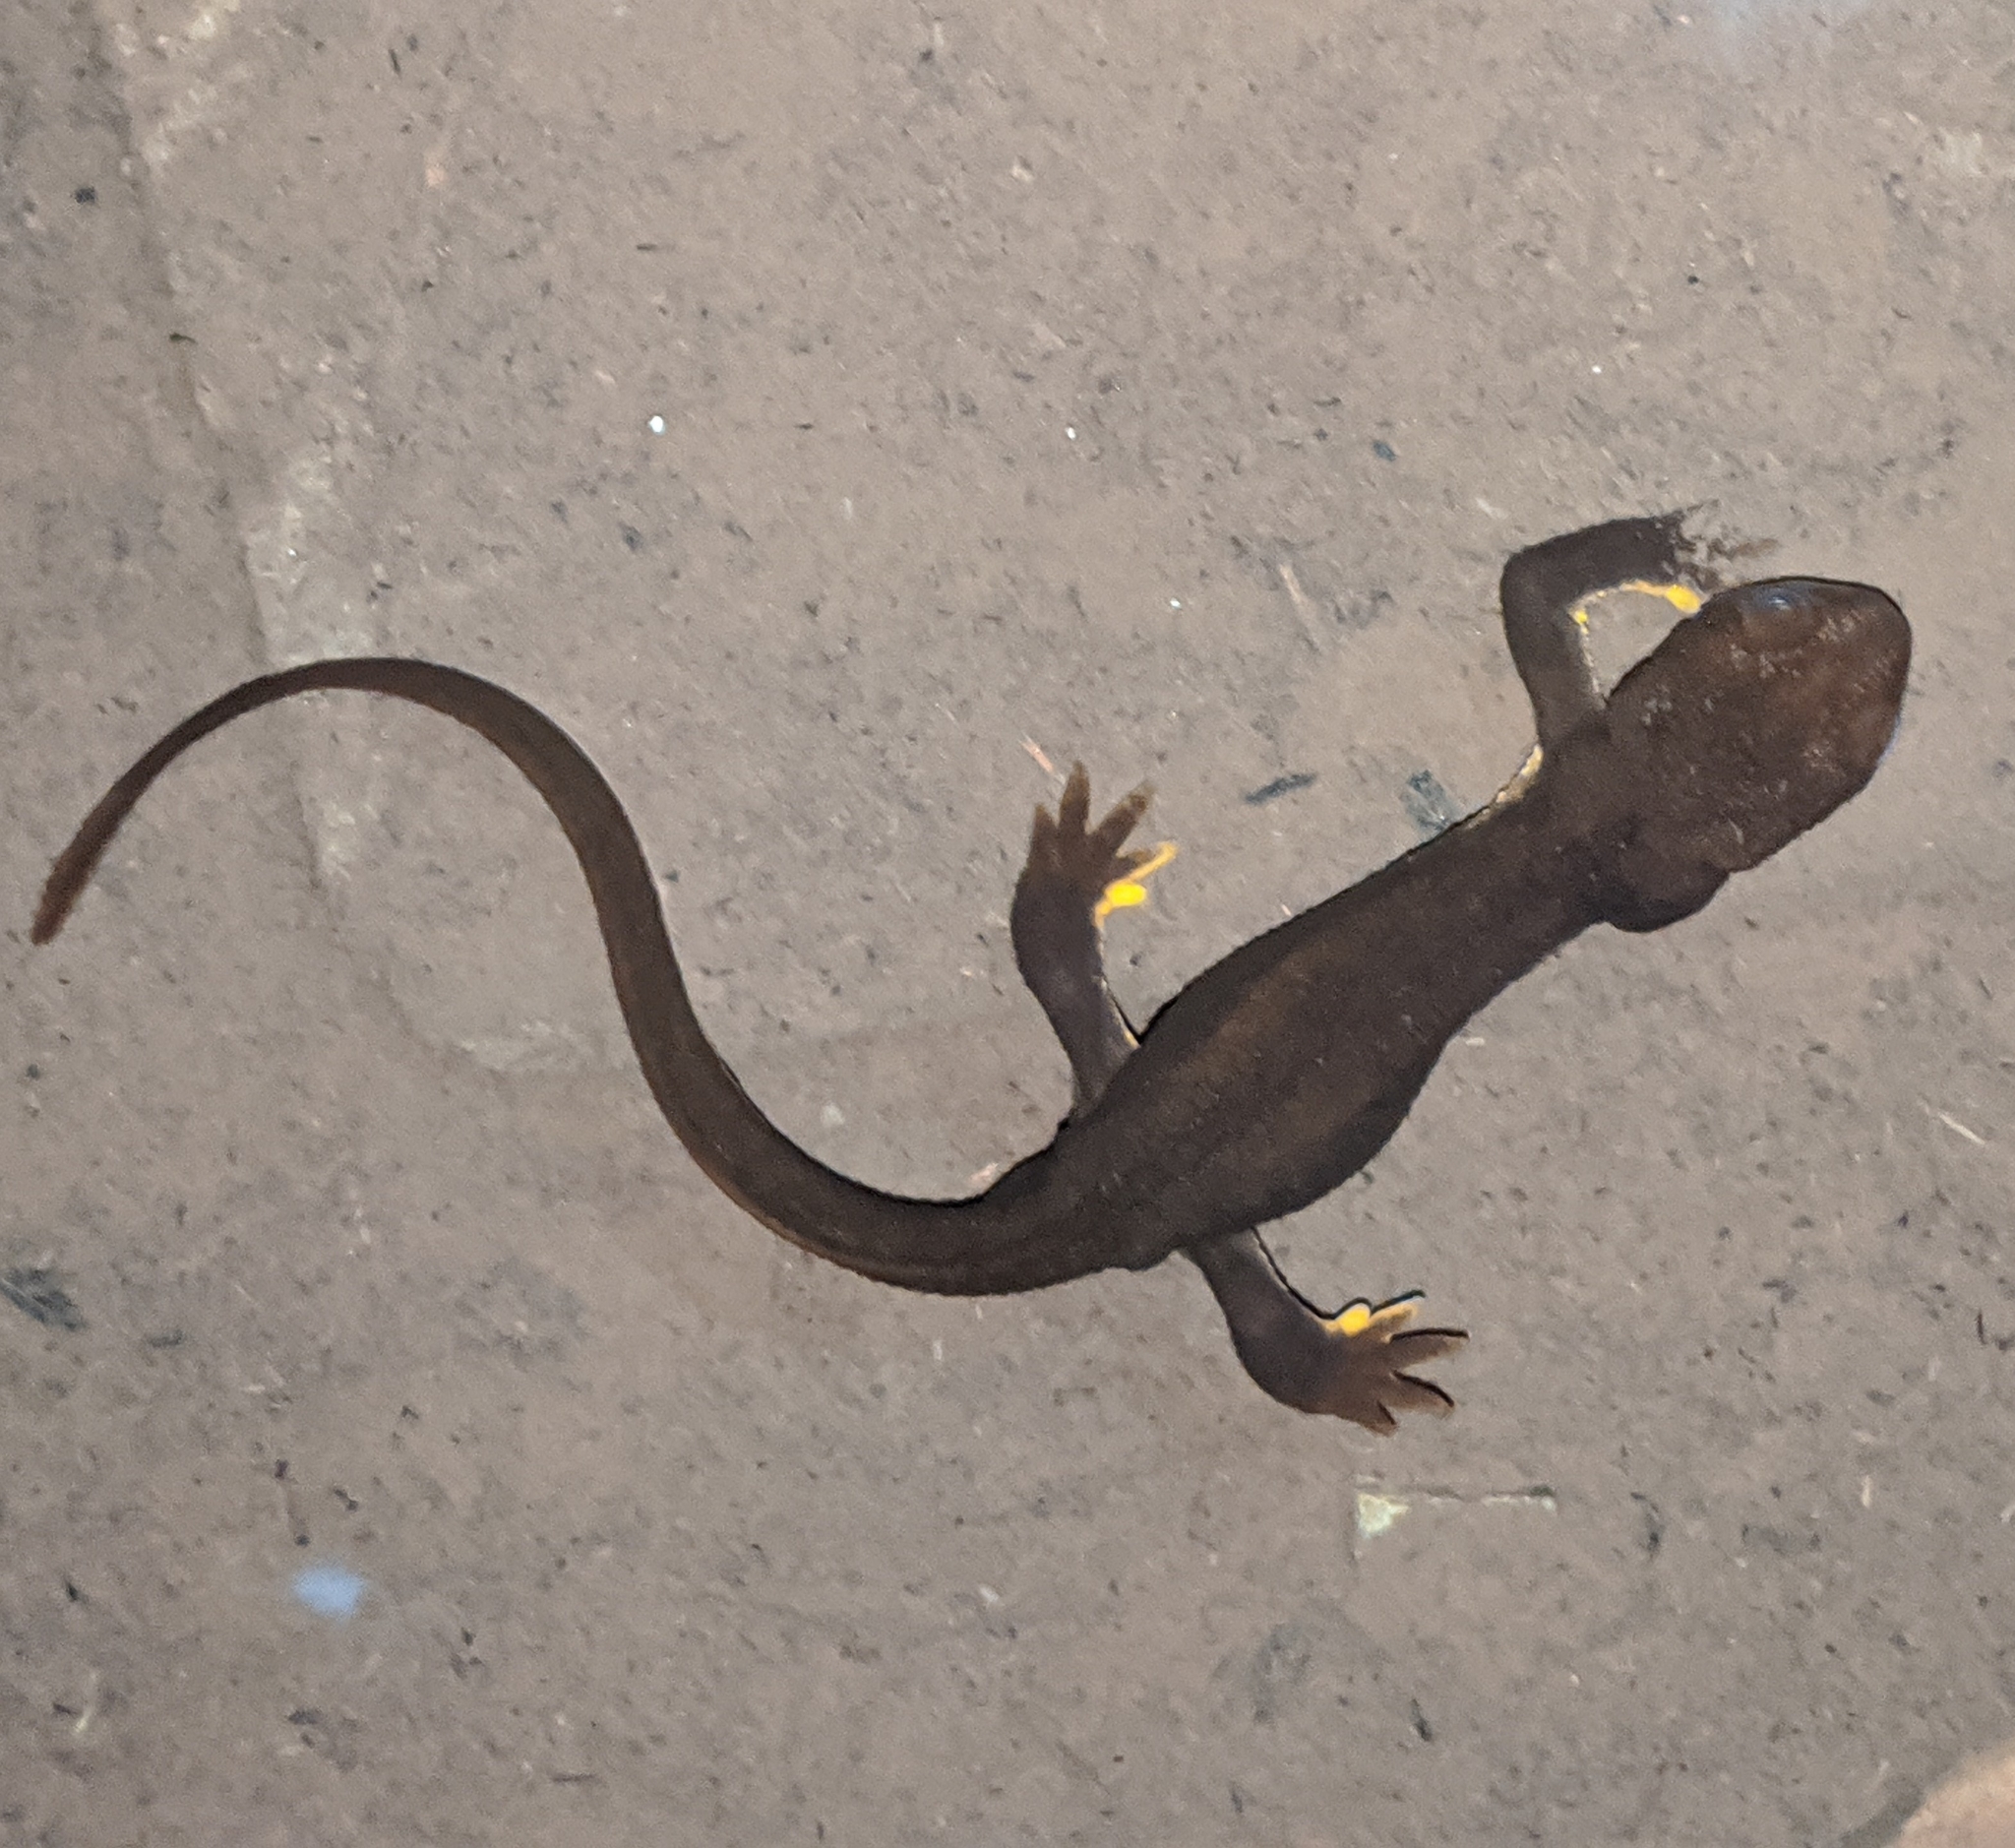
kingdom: Animalia
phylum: Chordata
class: Amphibia
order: Caudata
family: Salamandridae
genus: Taricha
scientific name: Taricha granulosa
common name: Roughskin newt
